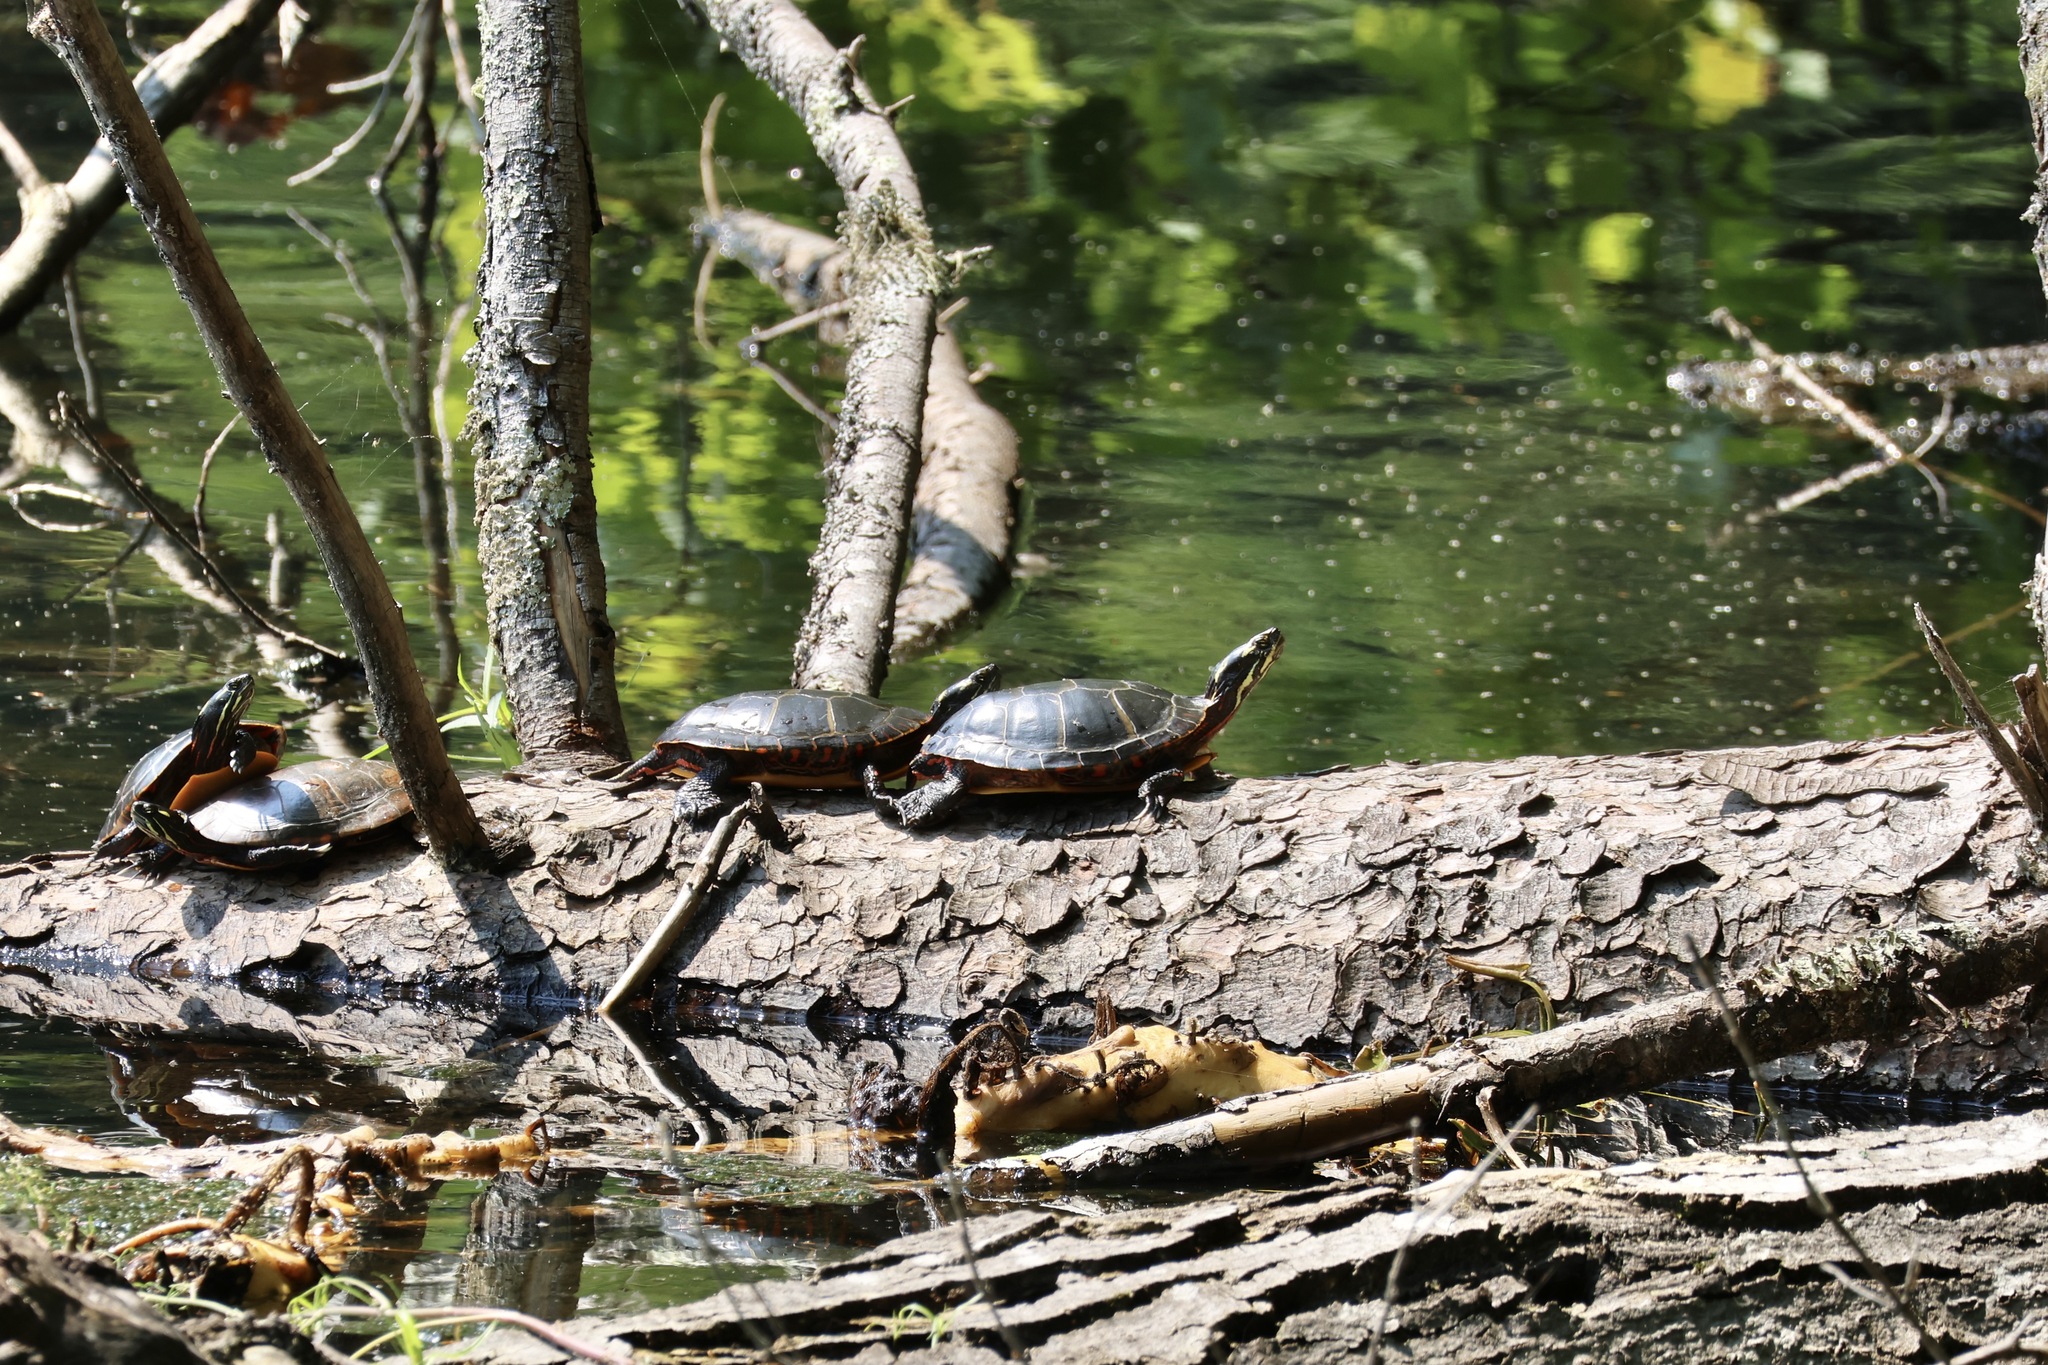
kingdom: Animalia
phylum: Chordata
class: Testudines
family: Emydidae
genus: Chrysemys
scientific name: Chrysemys picta
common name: Painted turtle
